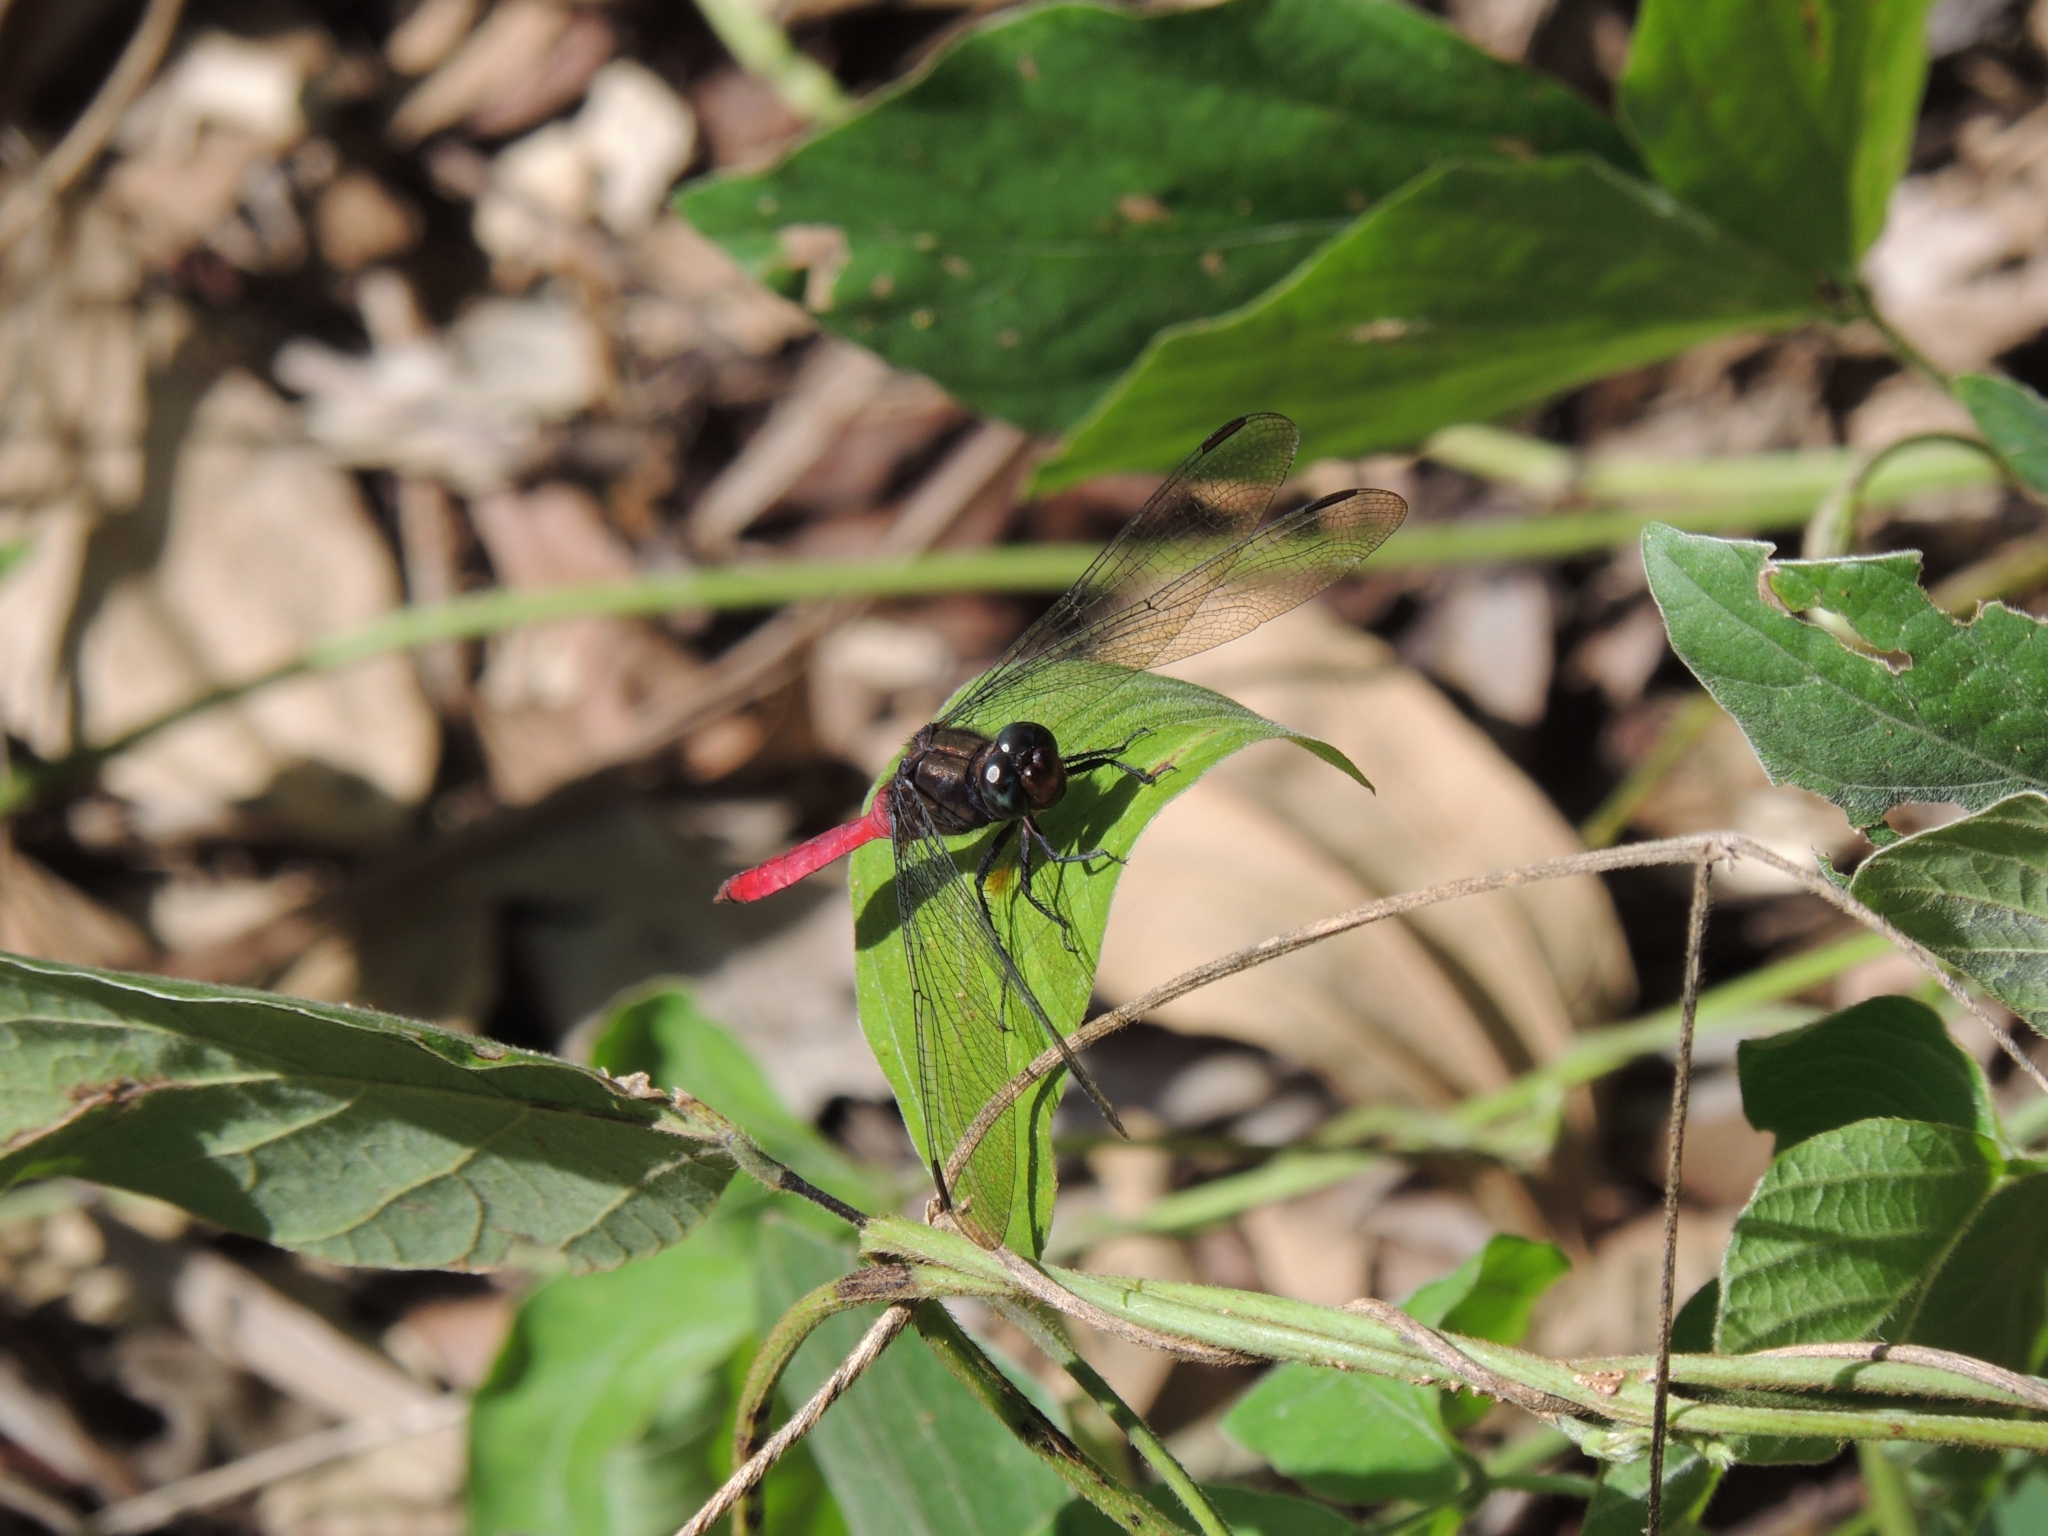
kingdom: Animalia
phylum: Arthropoda
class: Insecta
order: Odonata
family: Libellulidae
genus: Orthetrum
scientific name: Orthetrum villosovittatum
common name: Firery skimmer
